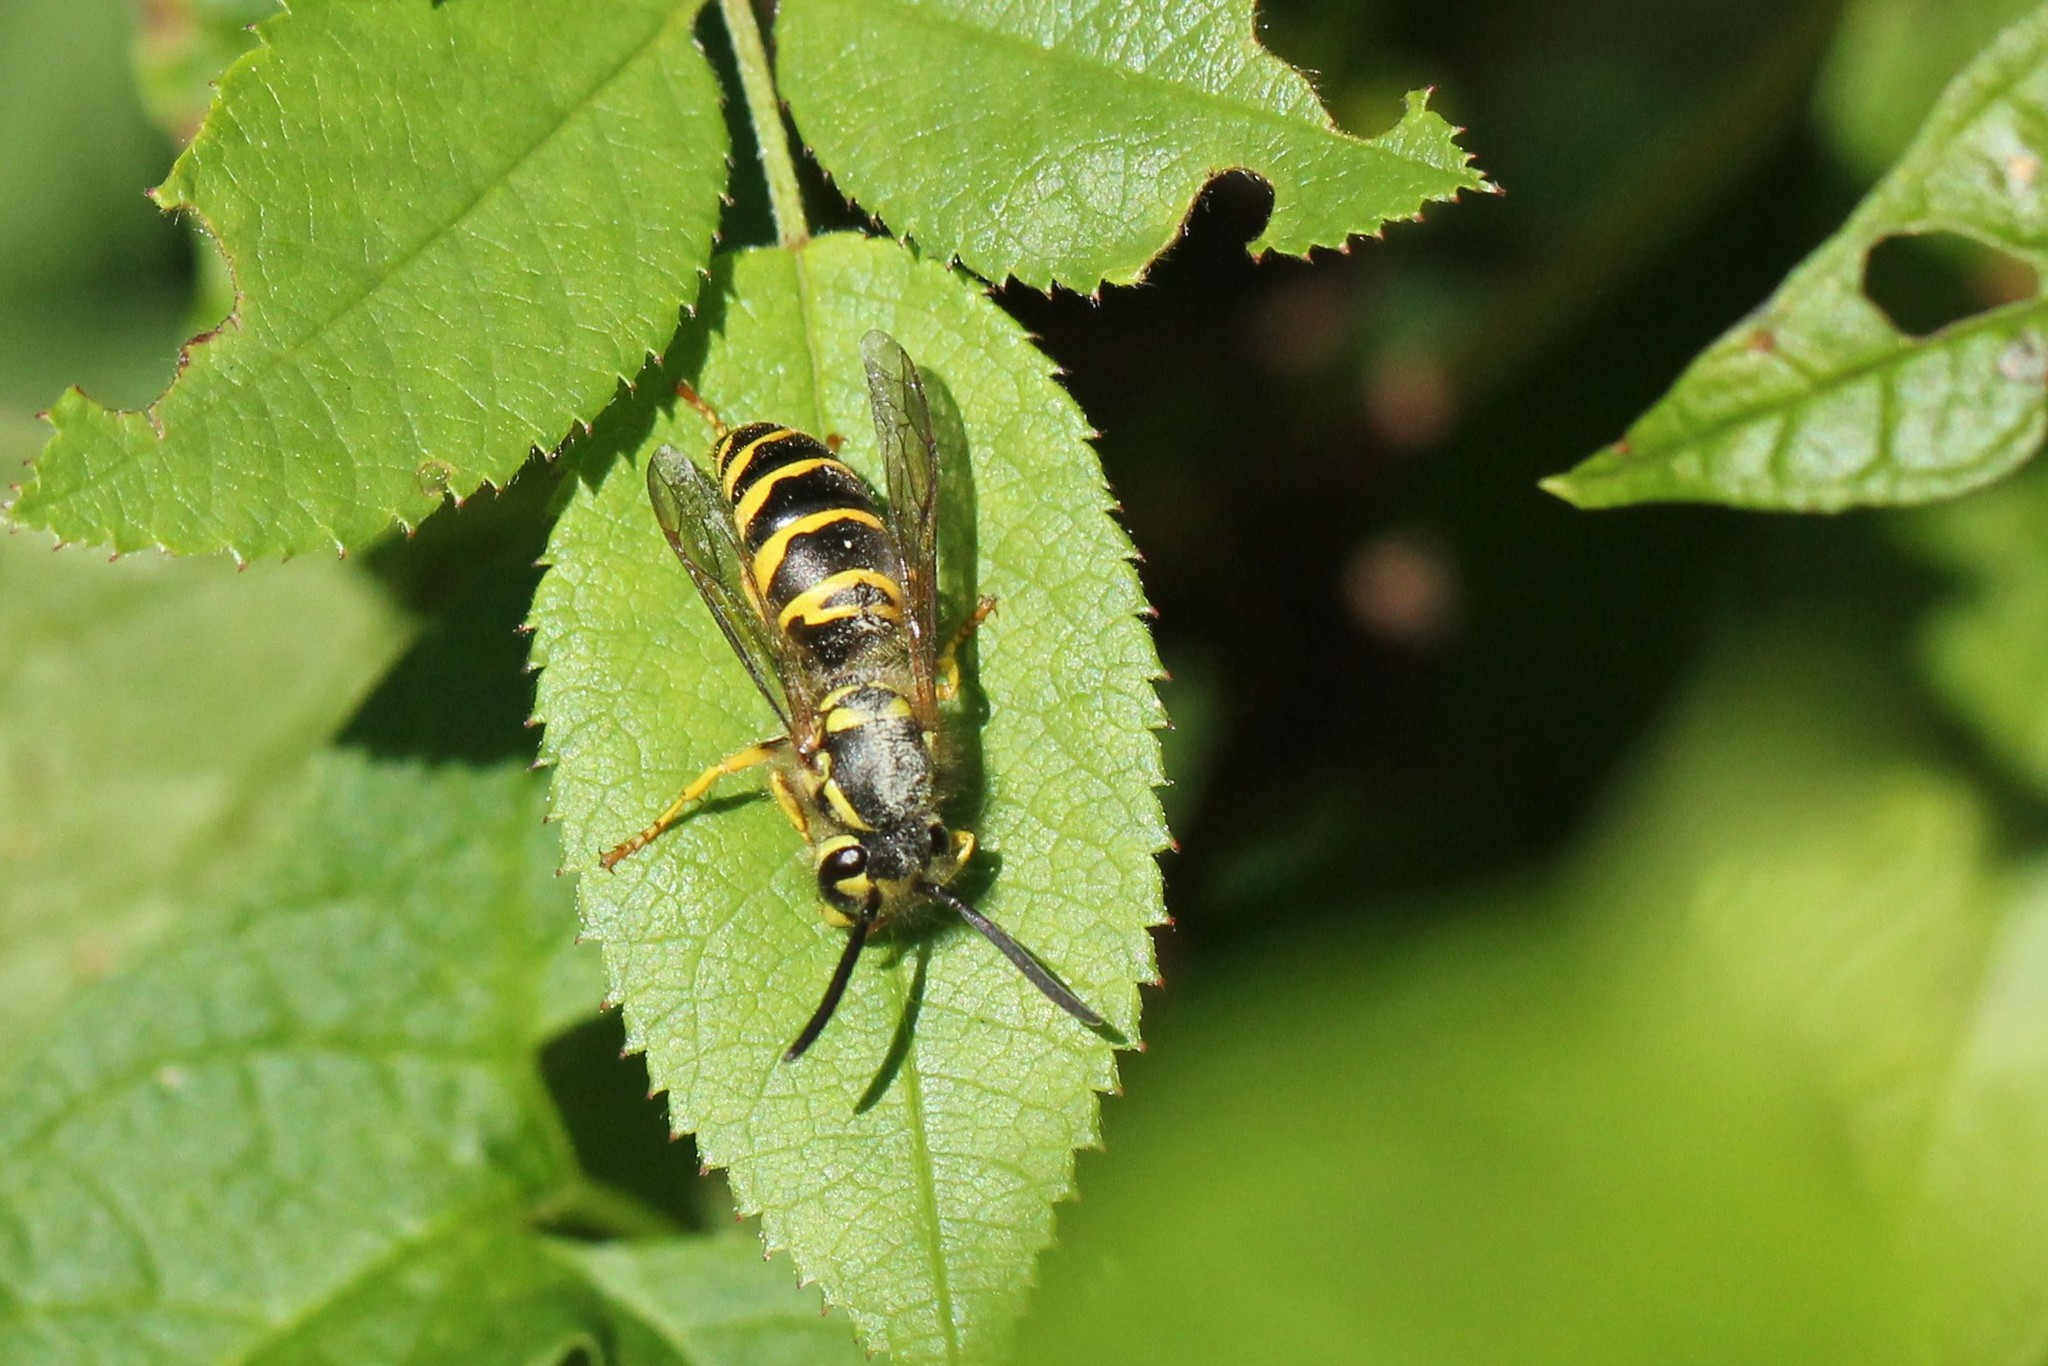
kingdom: Animalia
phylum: Arthropoda
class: Insecta
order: Hymenoptera
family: Vespidae
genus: Vespula
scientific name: Vespula maculifrons
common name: Eastern yellowjacket
